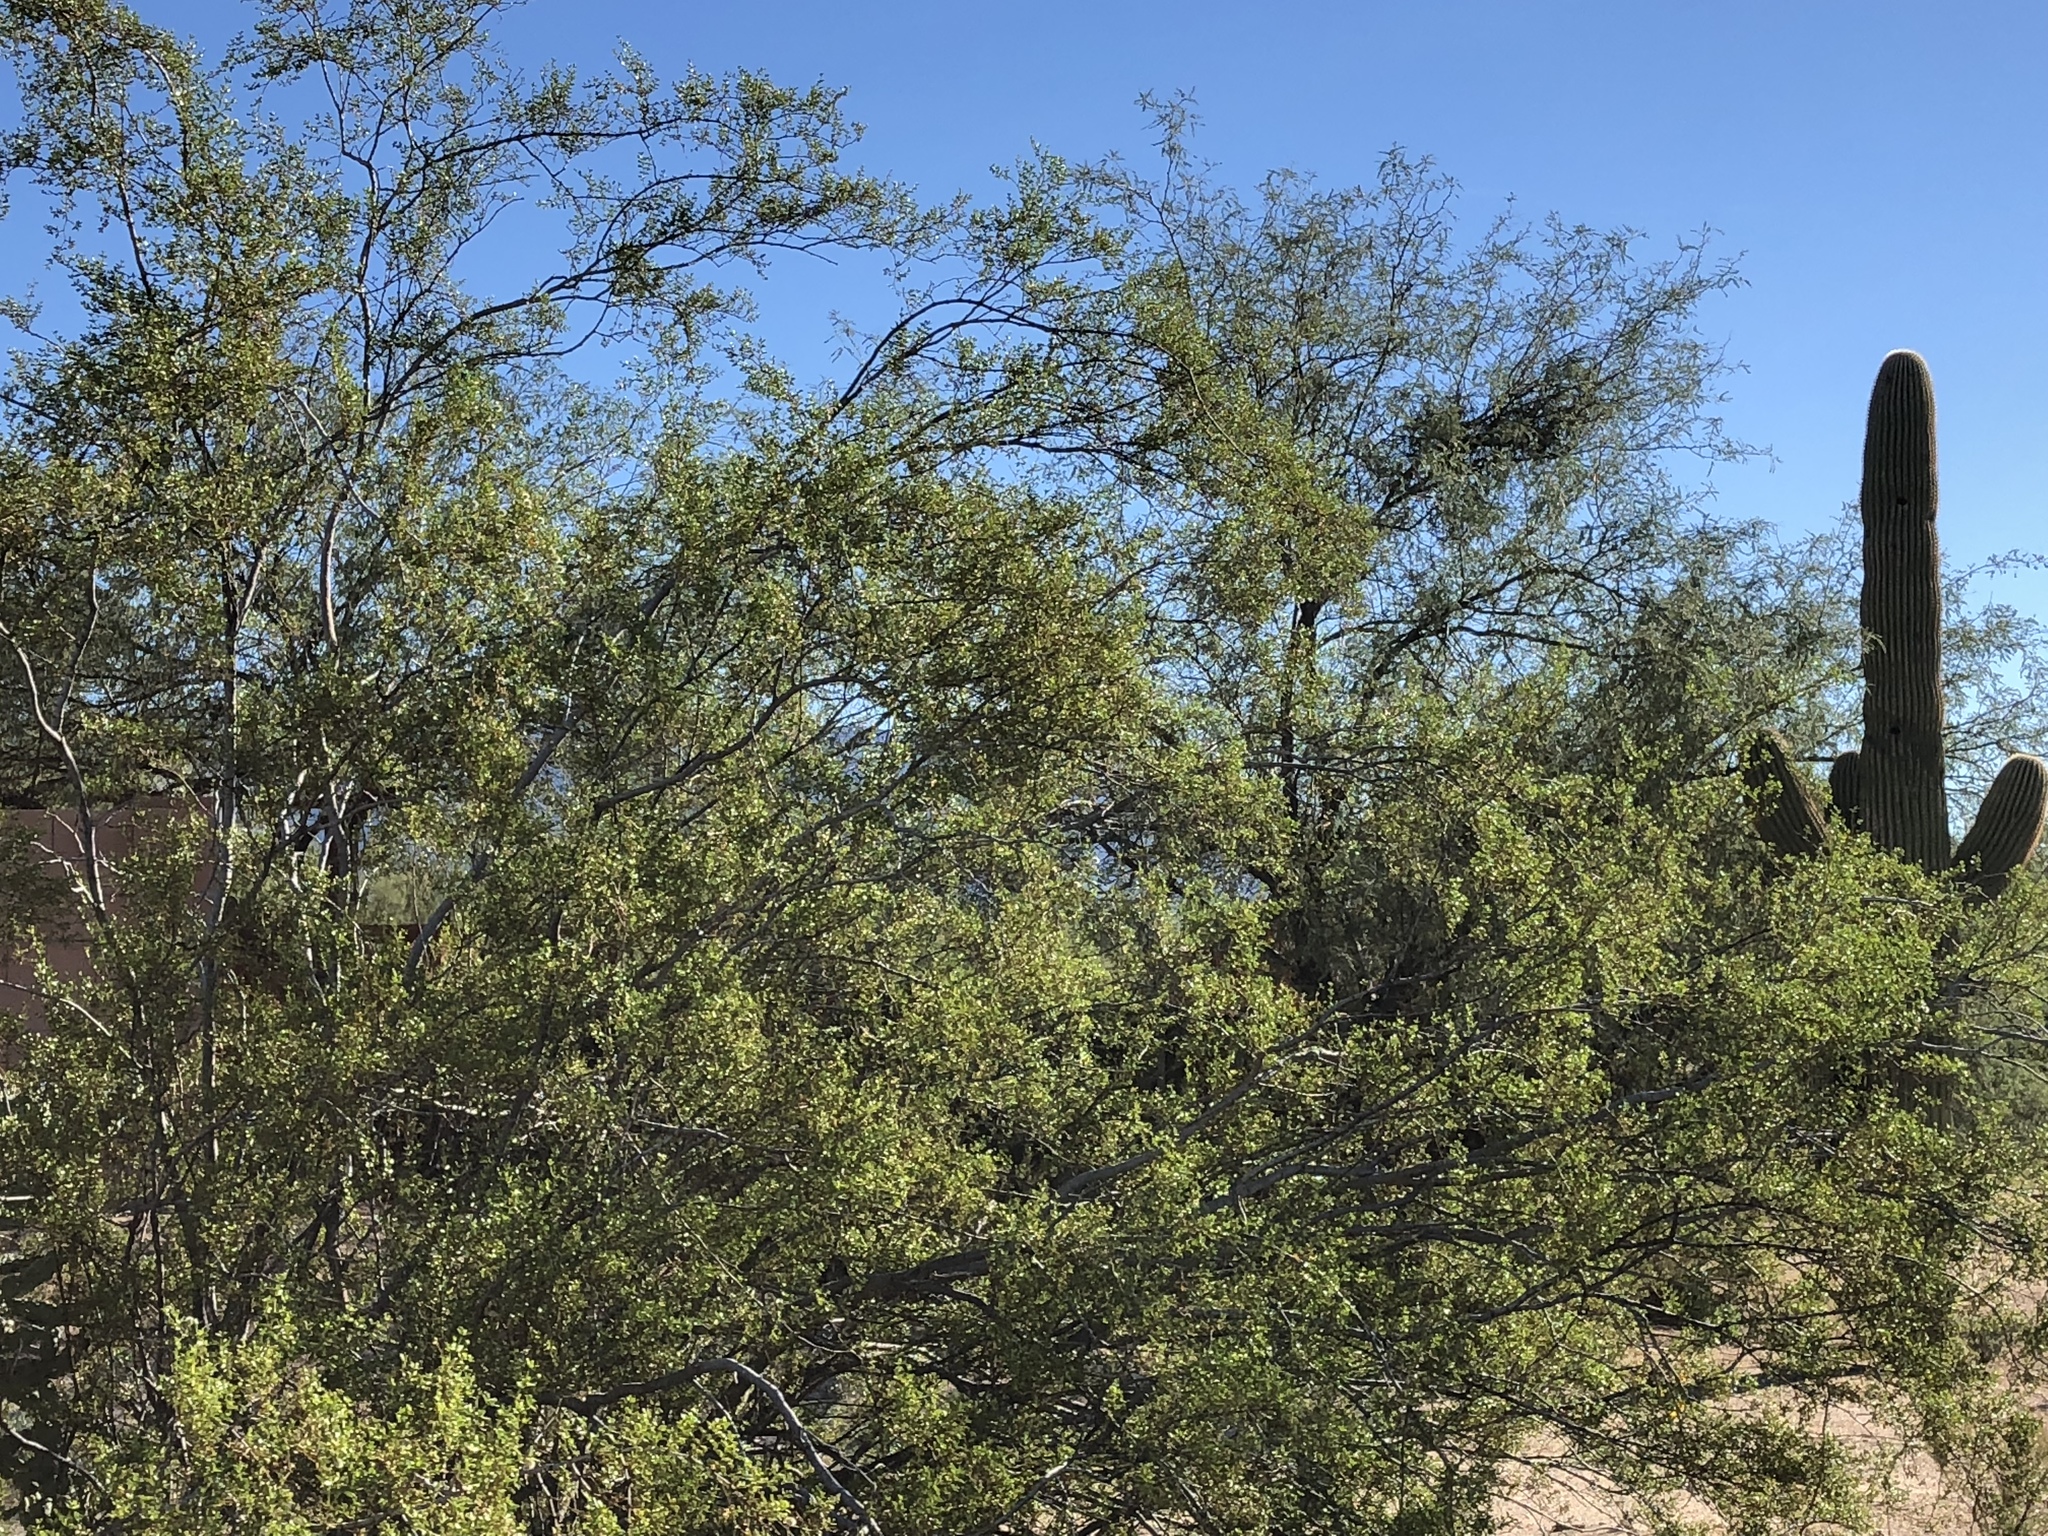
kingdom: Plantae
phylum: Tracheophyta
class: Magnoliopsida
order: Zygophyllales
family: Zygophyllaceae
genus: Larrea
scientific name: Larrea tridentata
